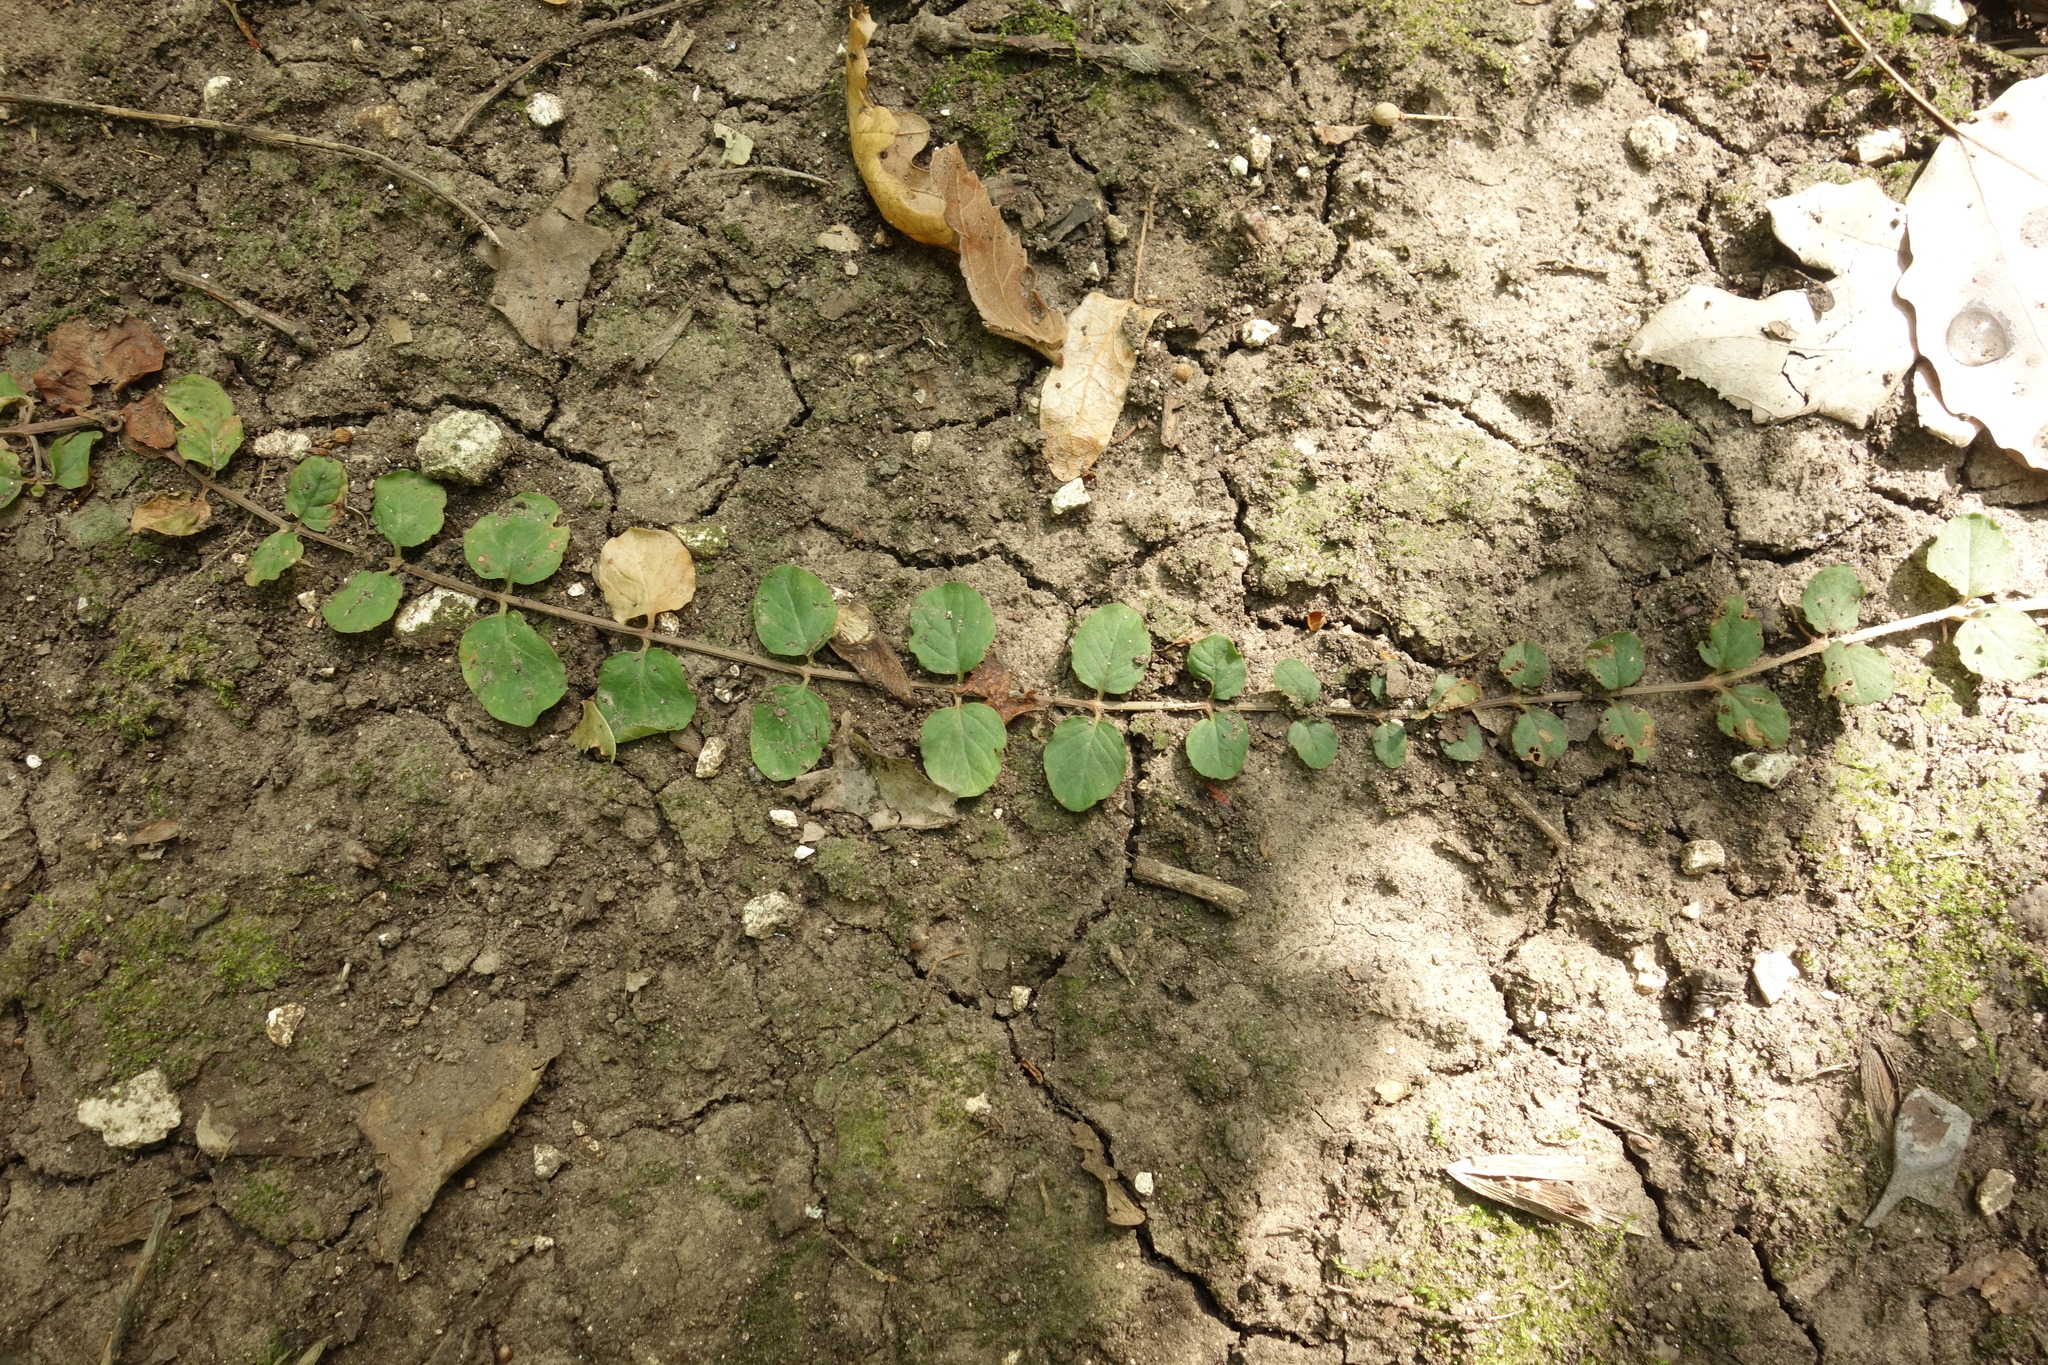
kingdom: Plantae
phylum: Tracheophyta
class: Magnoliopsida
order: Ericales
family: Primulaceae
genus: Lysimachia
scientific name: Lysimachia nummularia
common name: Moneywort
